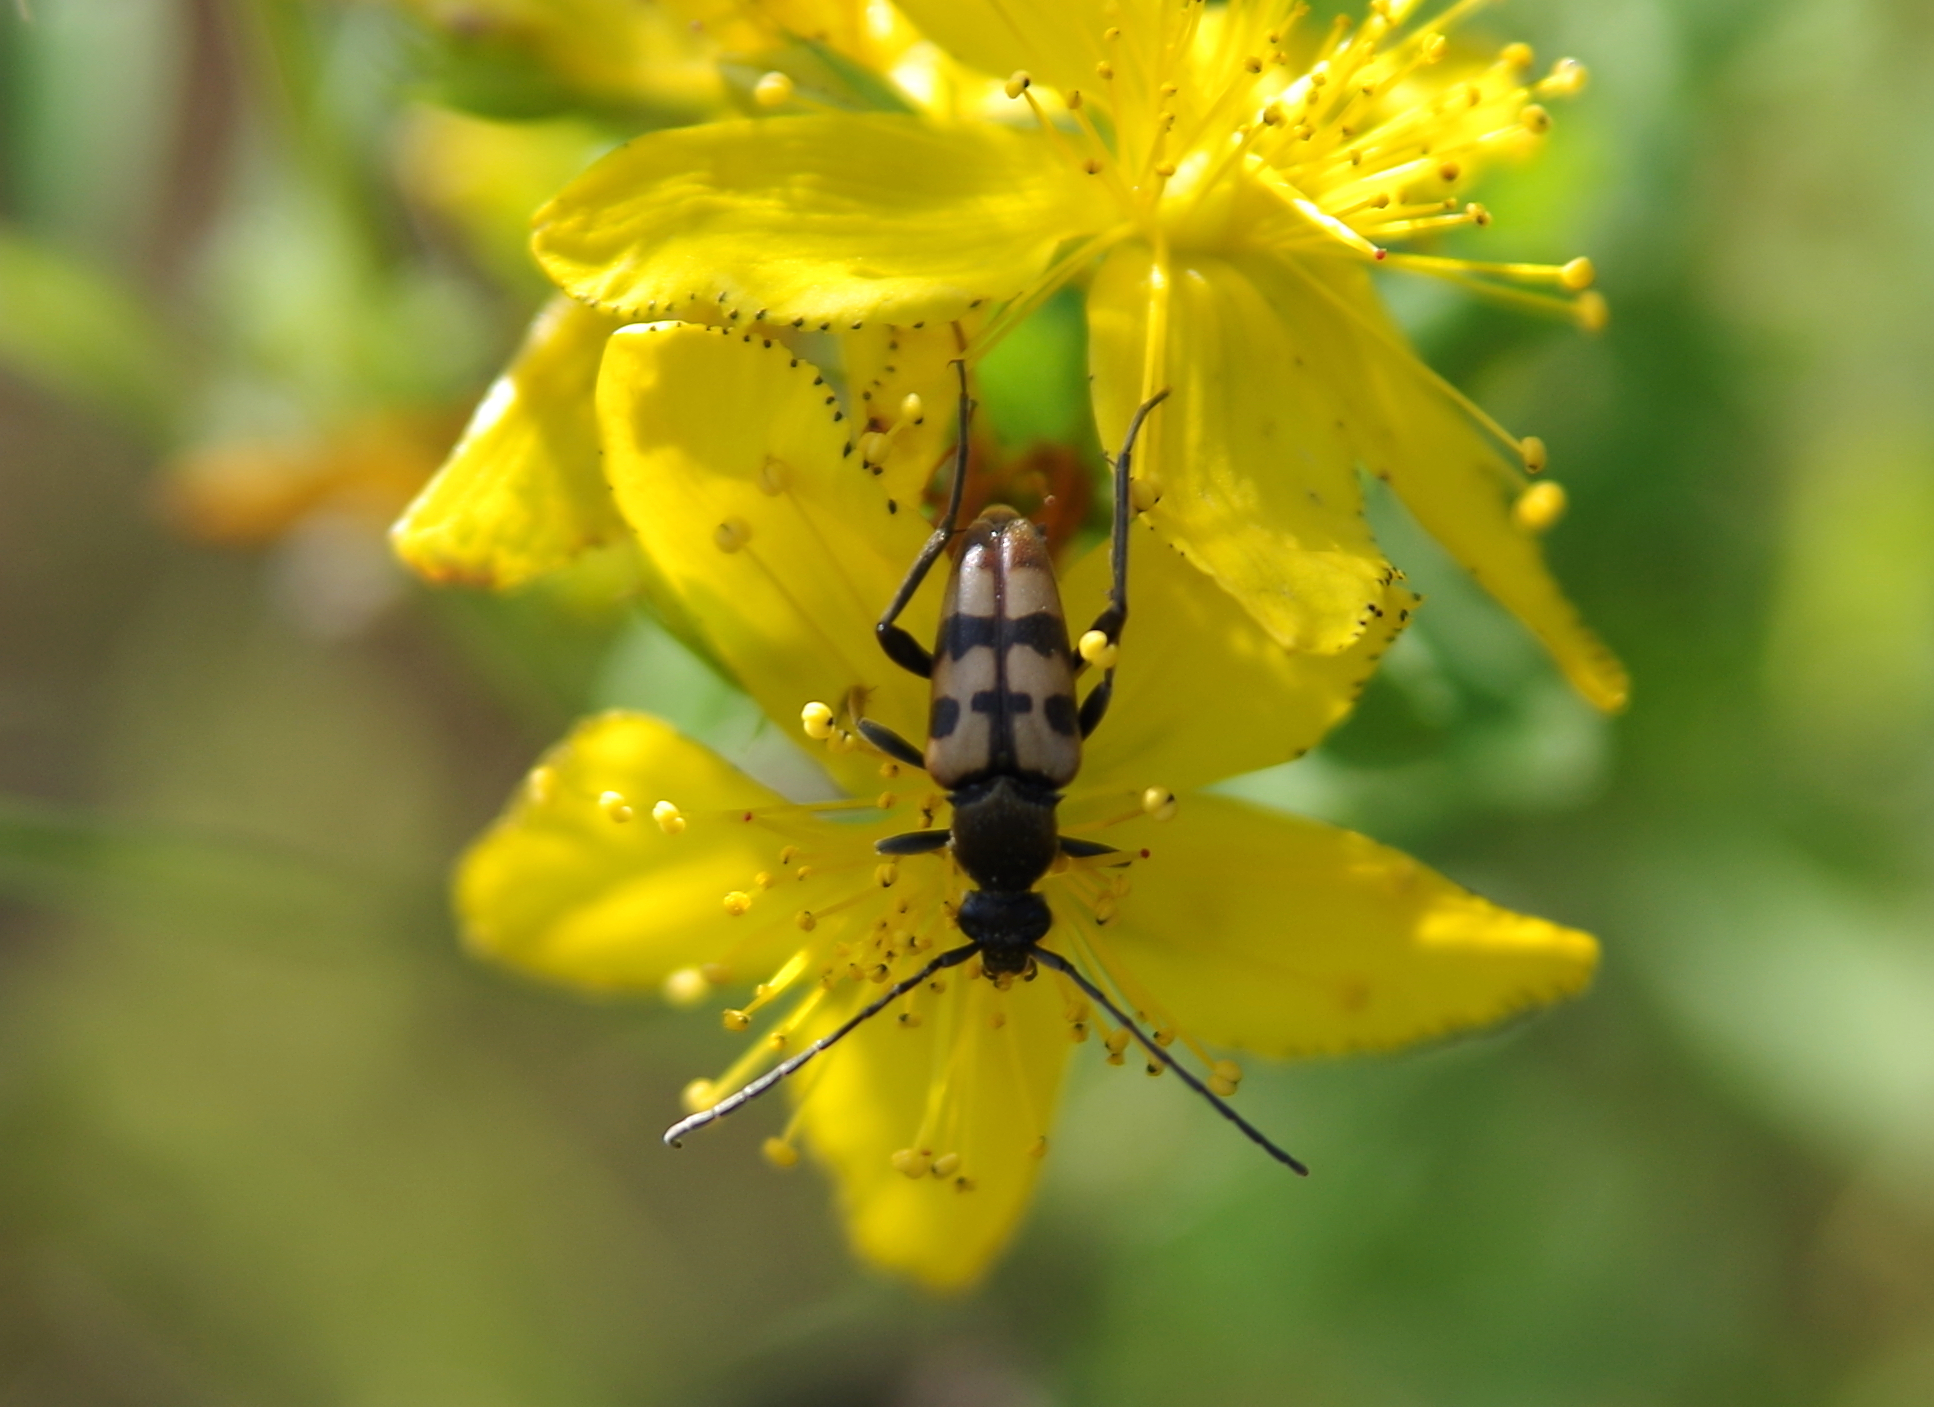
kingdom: Animalia
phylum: Arthropoda
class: Insecta
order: Coleoptera
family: Cerambycidae
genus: Pachytodes
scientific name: Pachytodes
